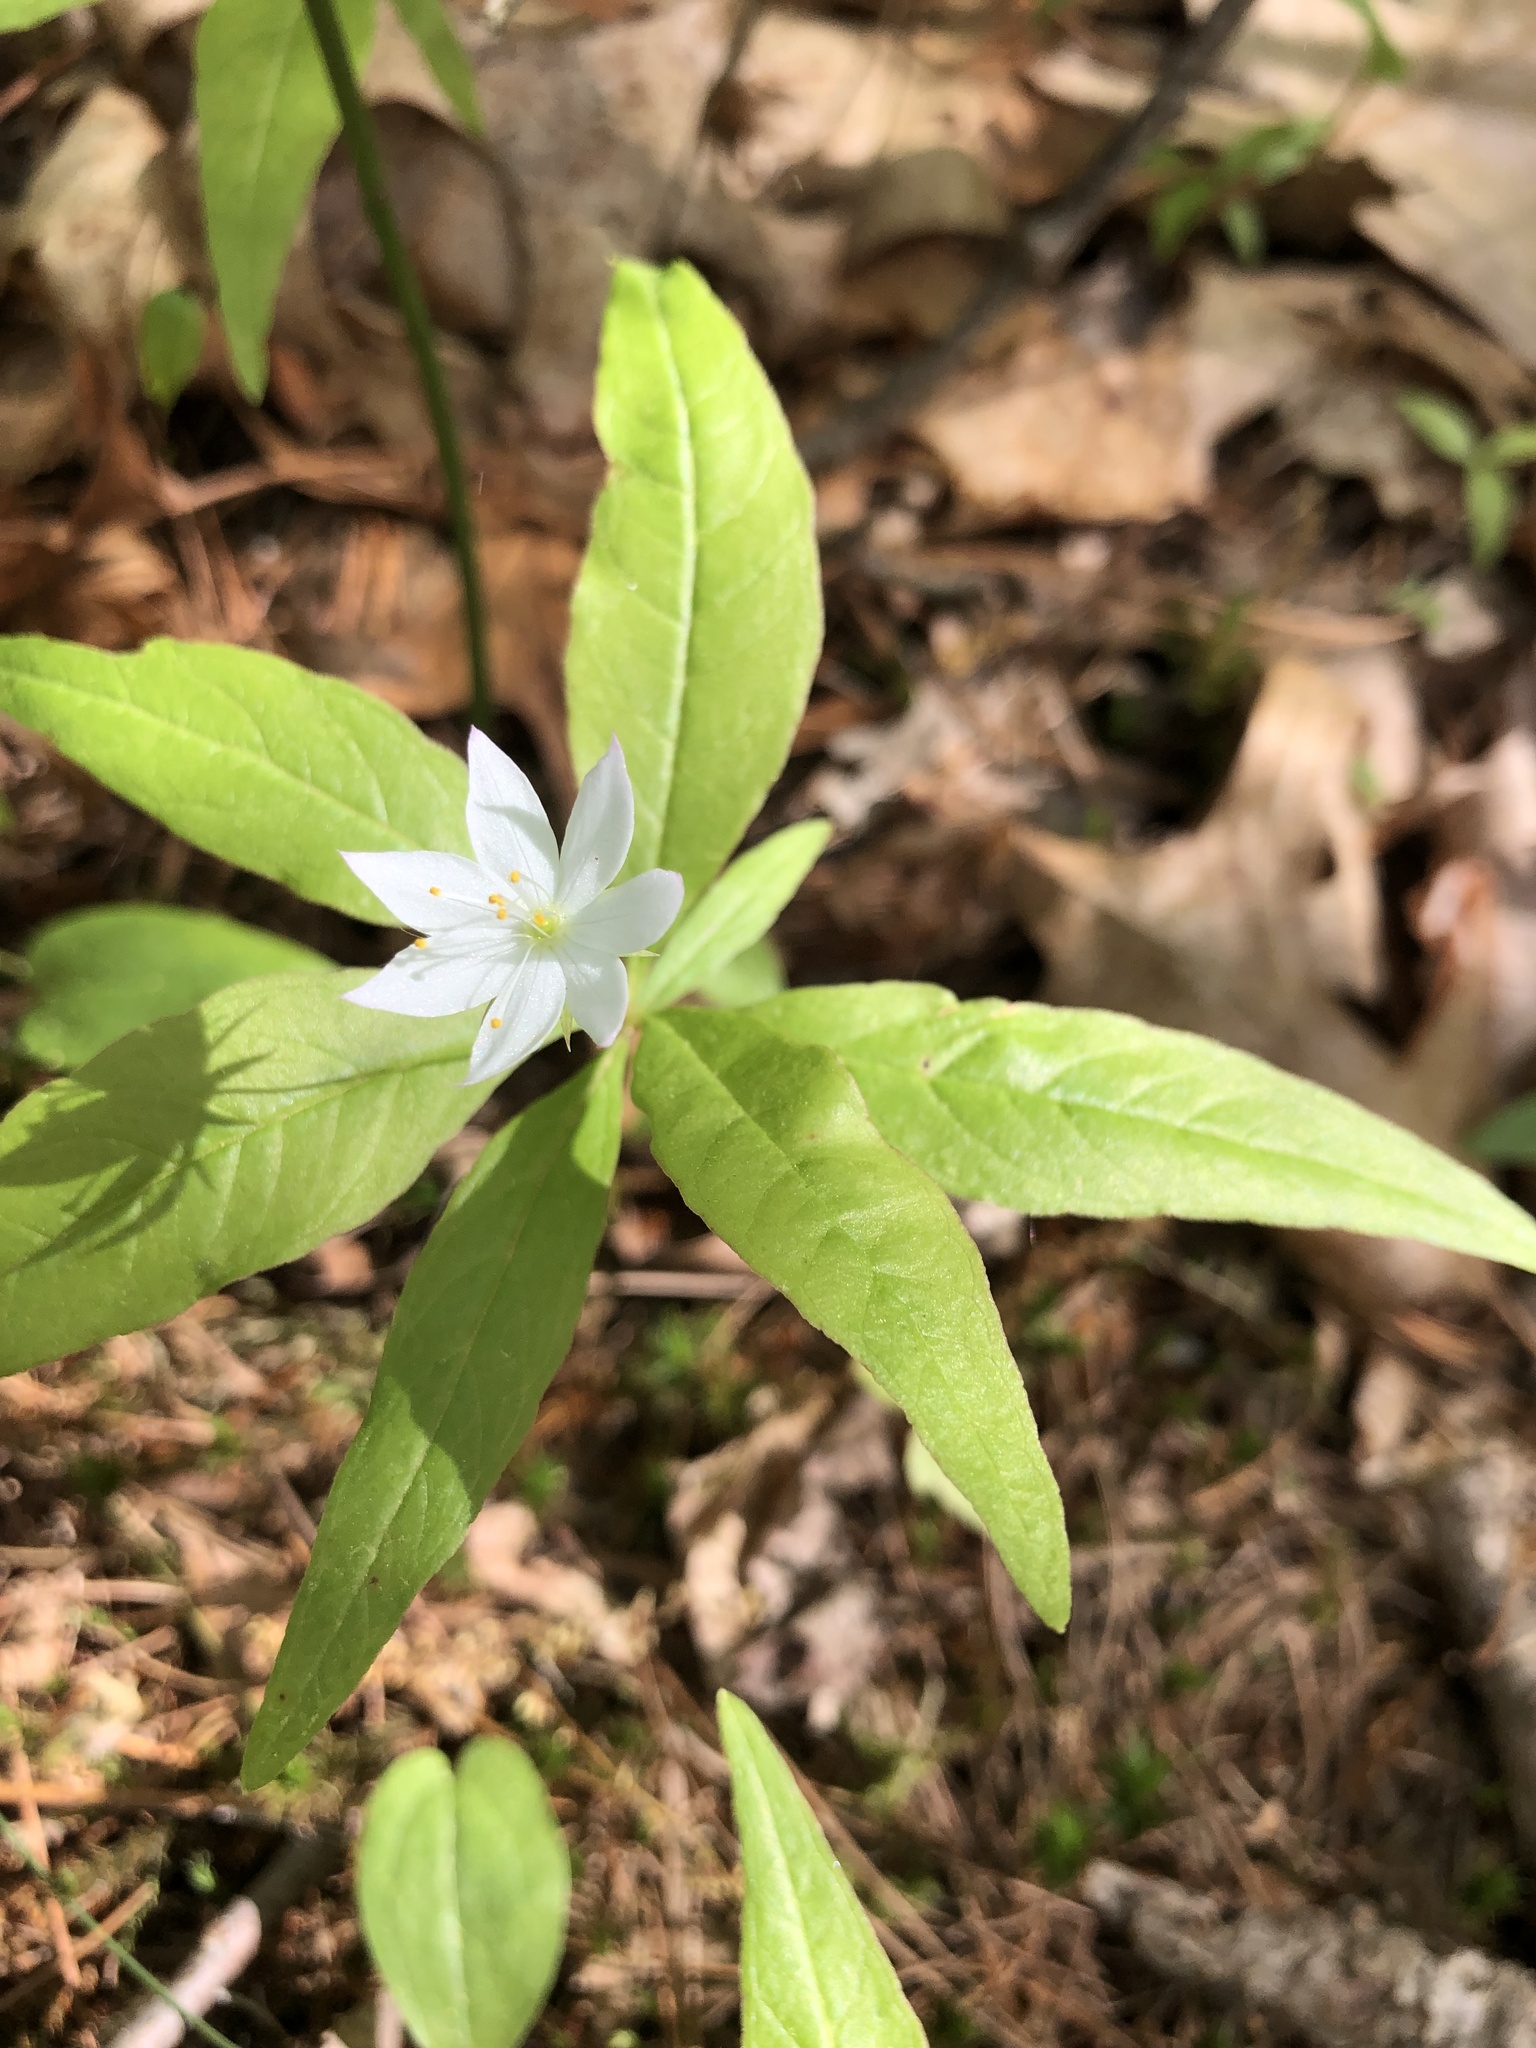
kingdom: Plantae
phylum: Tracheophyta
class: Magnoliopsida
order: Ericales
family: Primulaceae
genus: Lysimachia
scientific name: Lysimachia borealis
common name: American starflower
